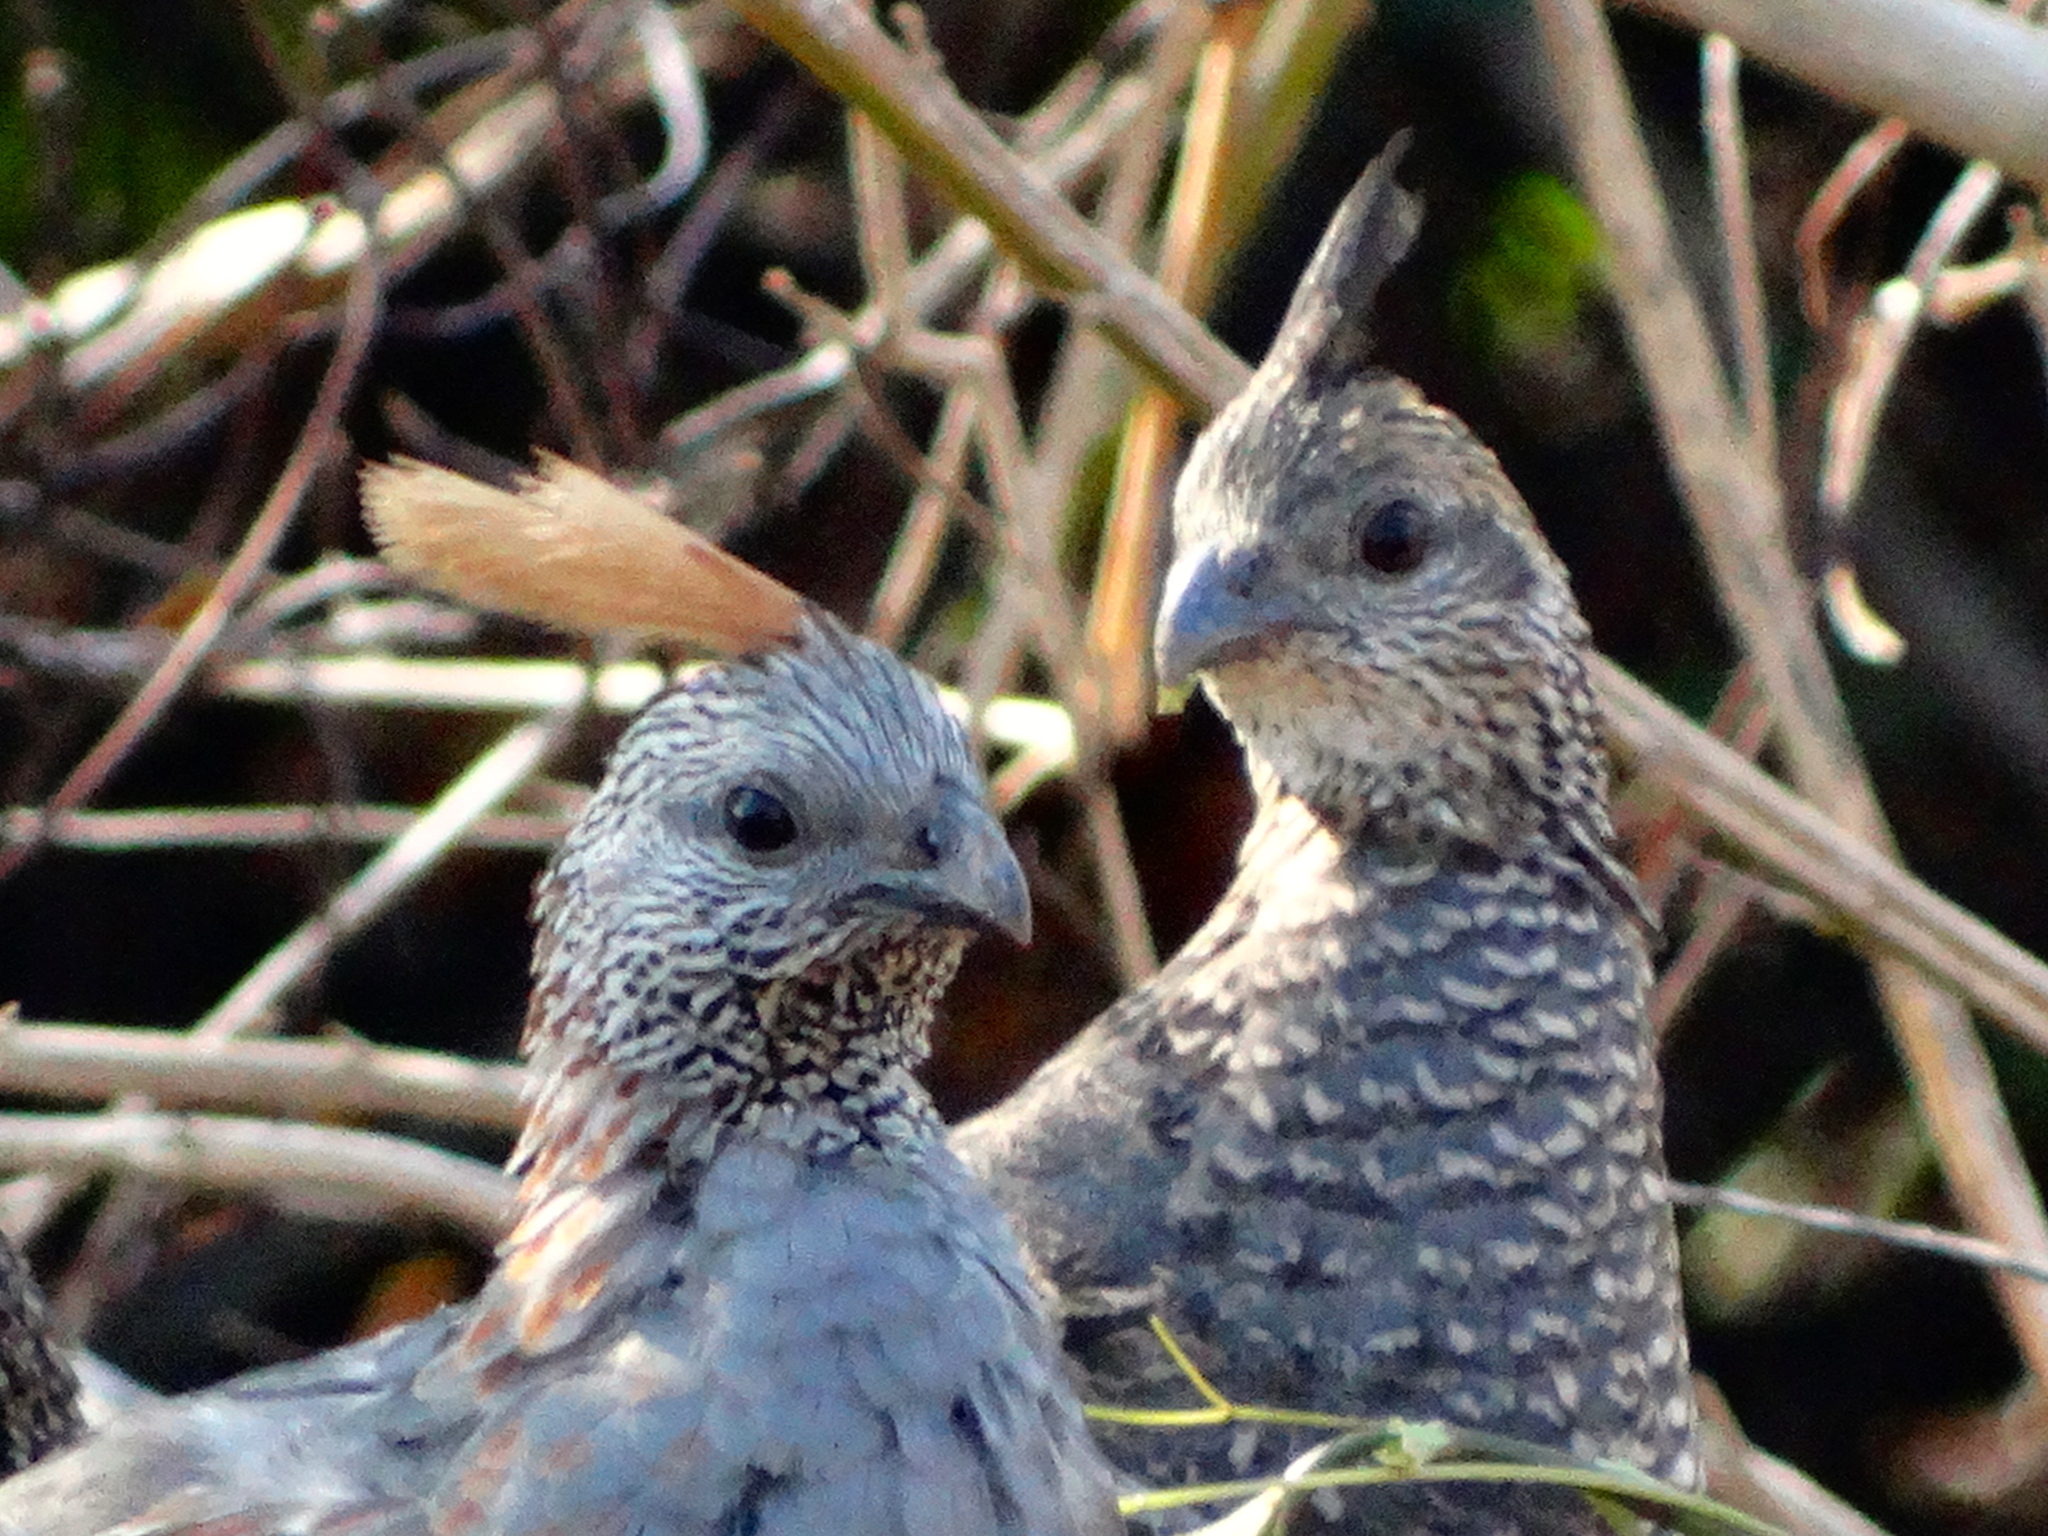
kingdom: Animalia
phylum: Chordata
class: Aves
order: Galliformes
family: Odontophoridae
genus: Callipepla
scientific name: Callipepla douglasii
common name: Elegant quail
